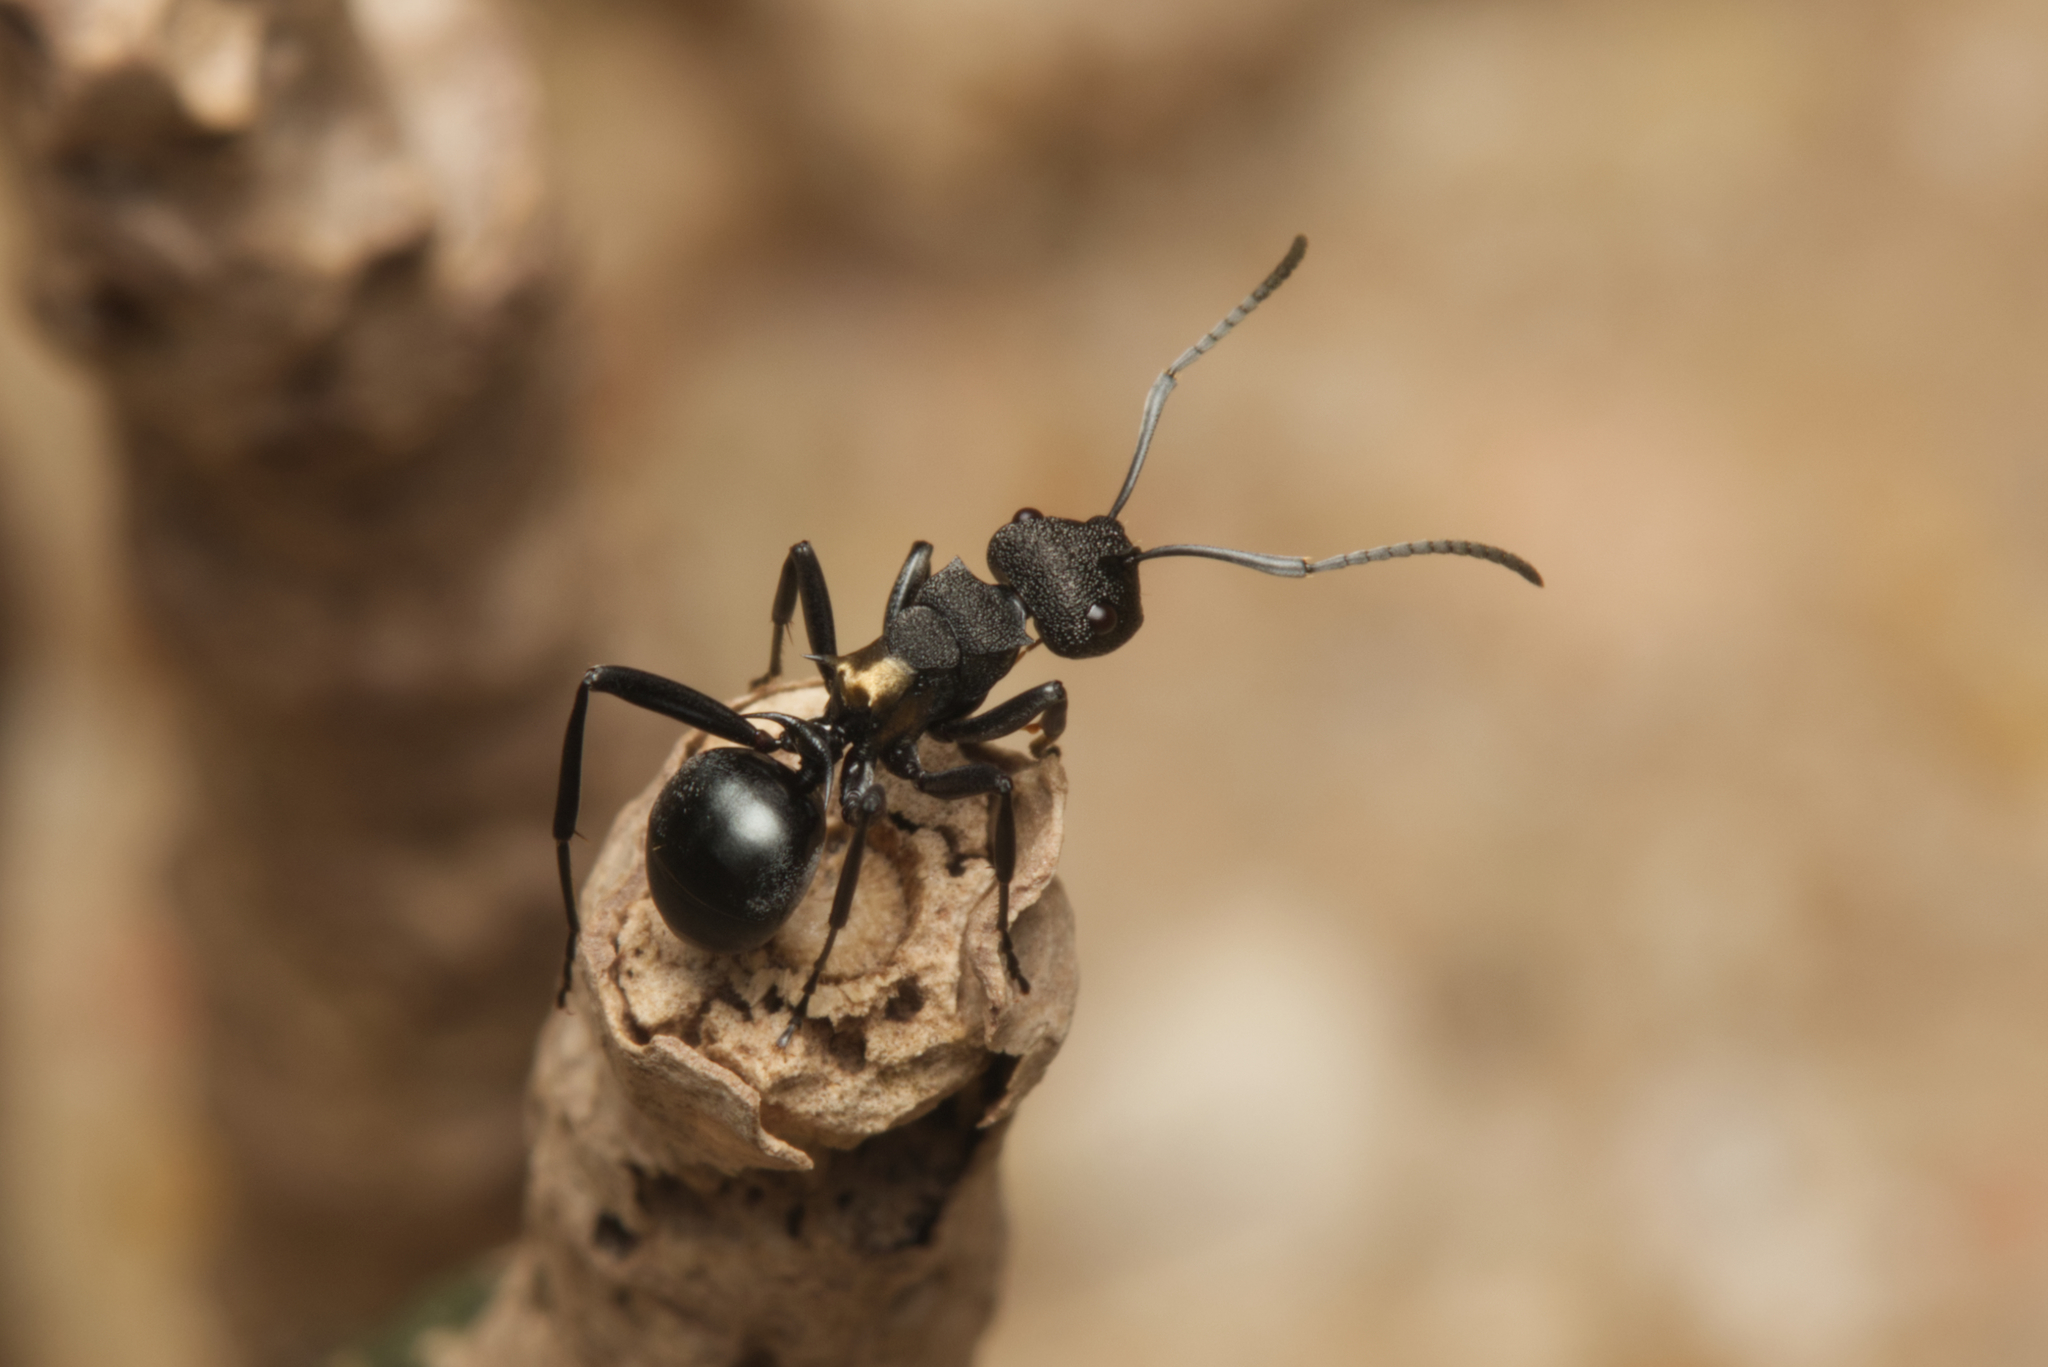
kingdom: Animalia
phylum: Arthropoda
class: Insecta
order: Hymenoptera
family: Formicidae
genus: Polyrhachis
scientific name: Polyrhachis machaon
